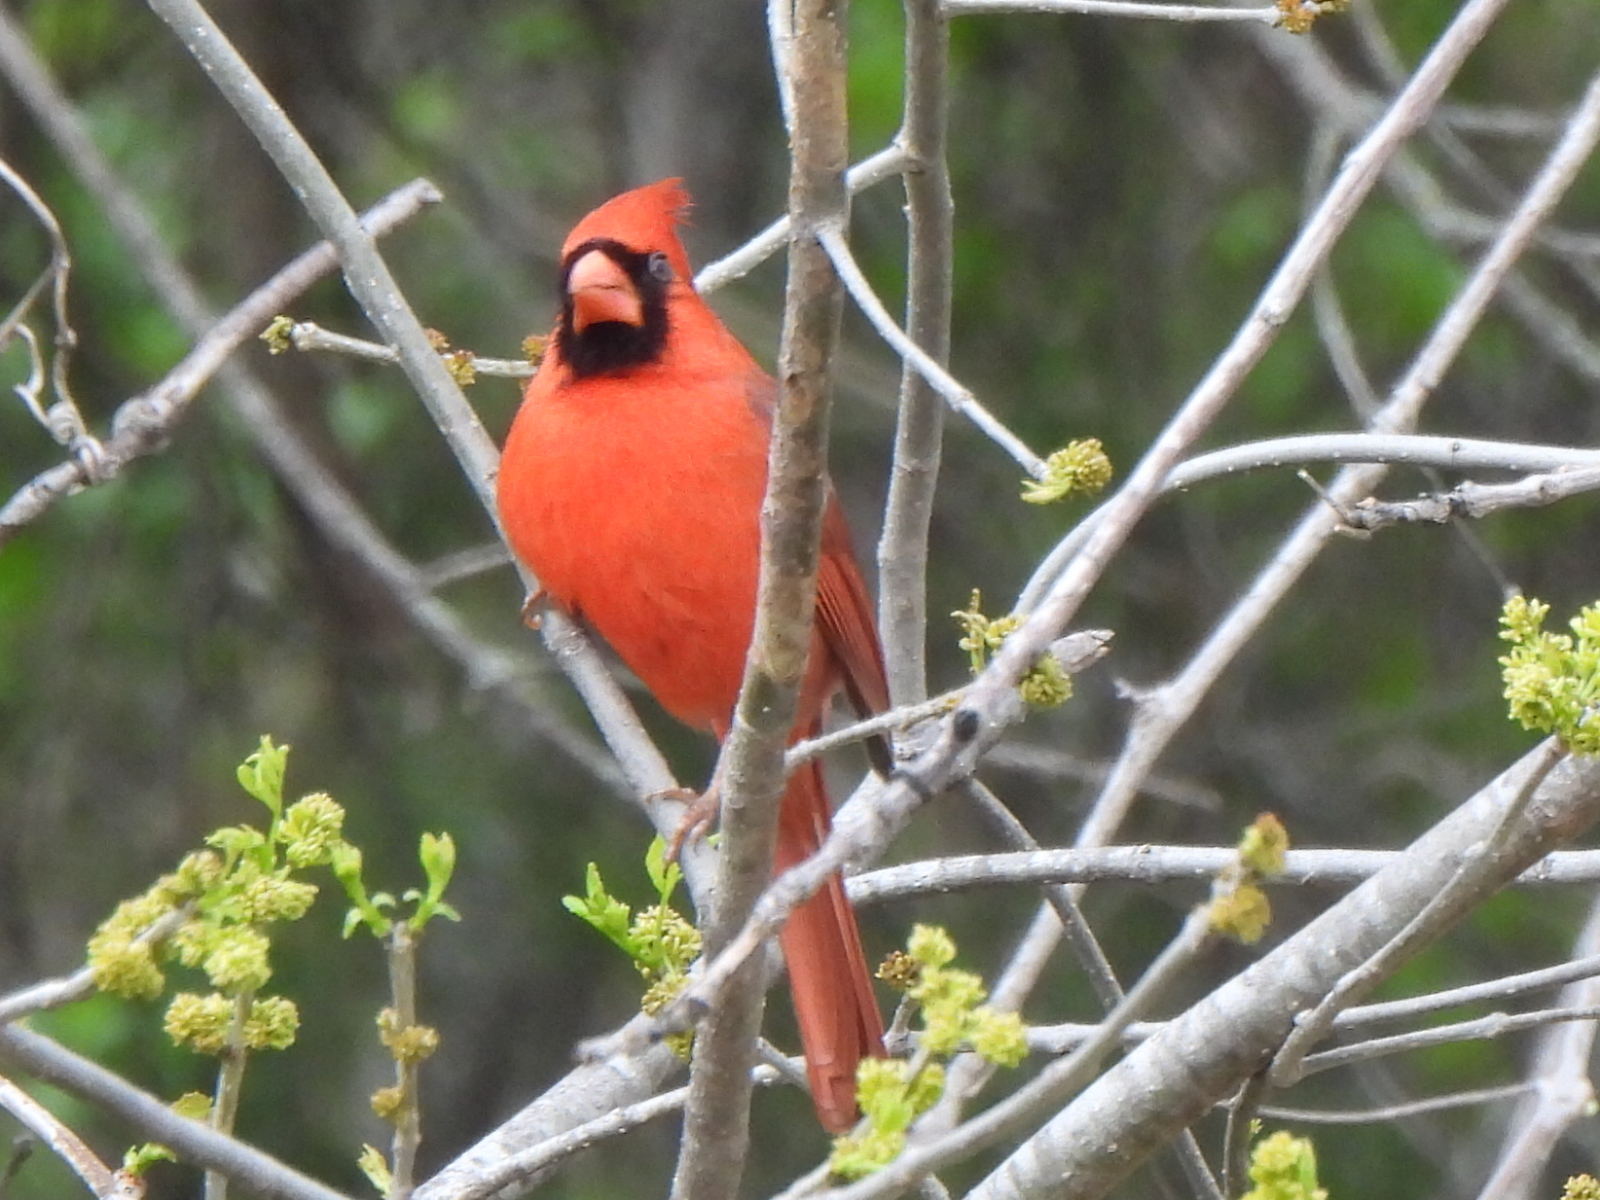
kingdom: Animalia
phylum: Chordata
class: Aves
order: Passeriformes
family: Cardinalidae
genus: Cardinalis
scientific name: Cardinalis cardinalis
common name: Northern cardinal
